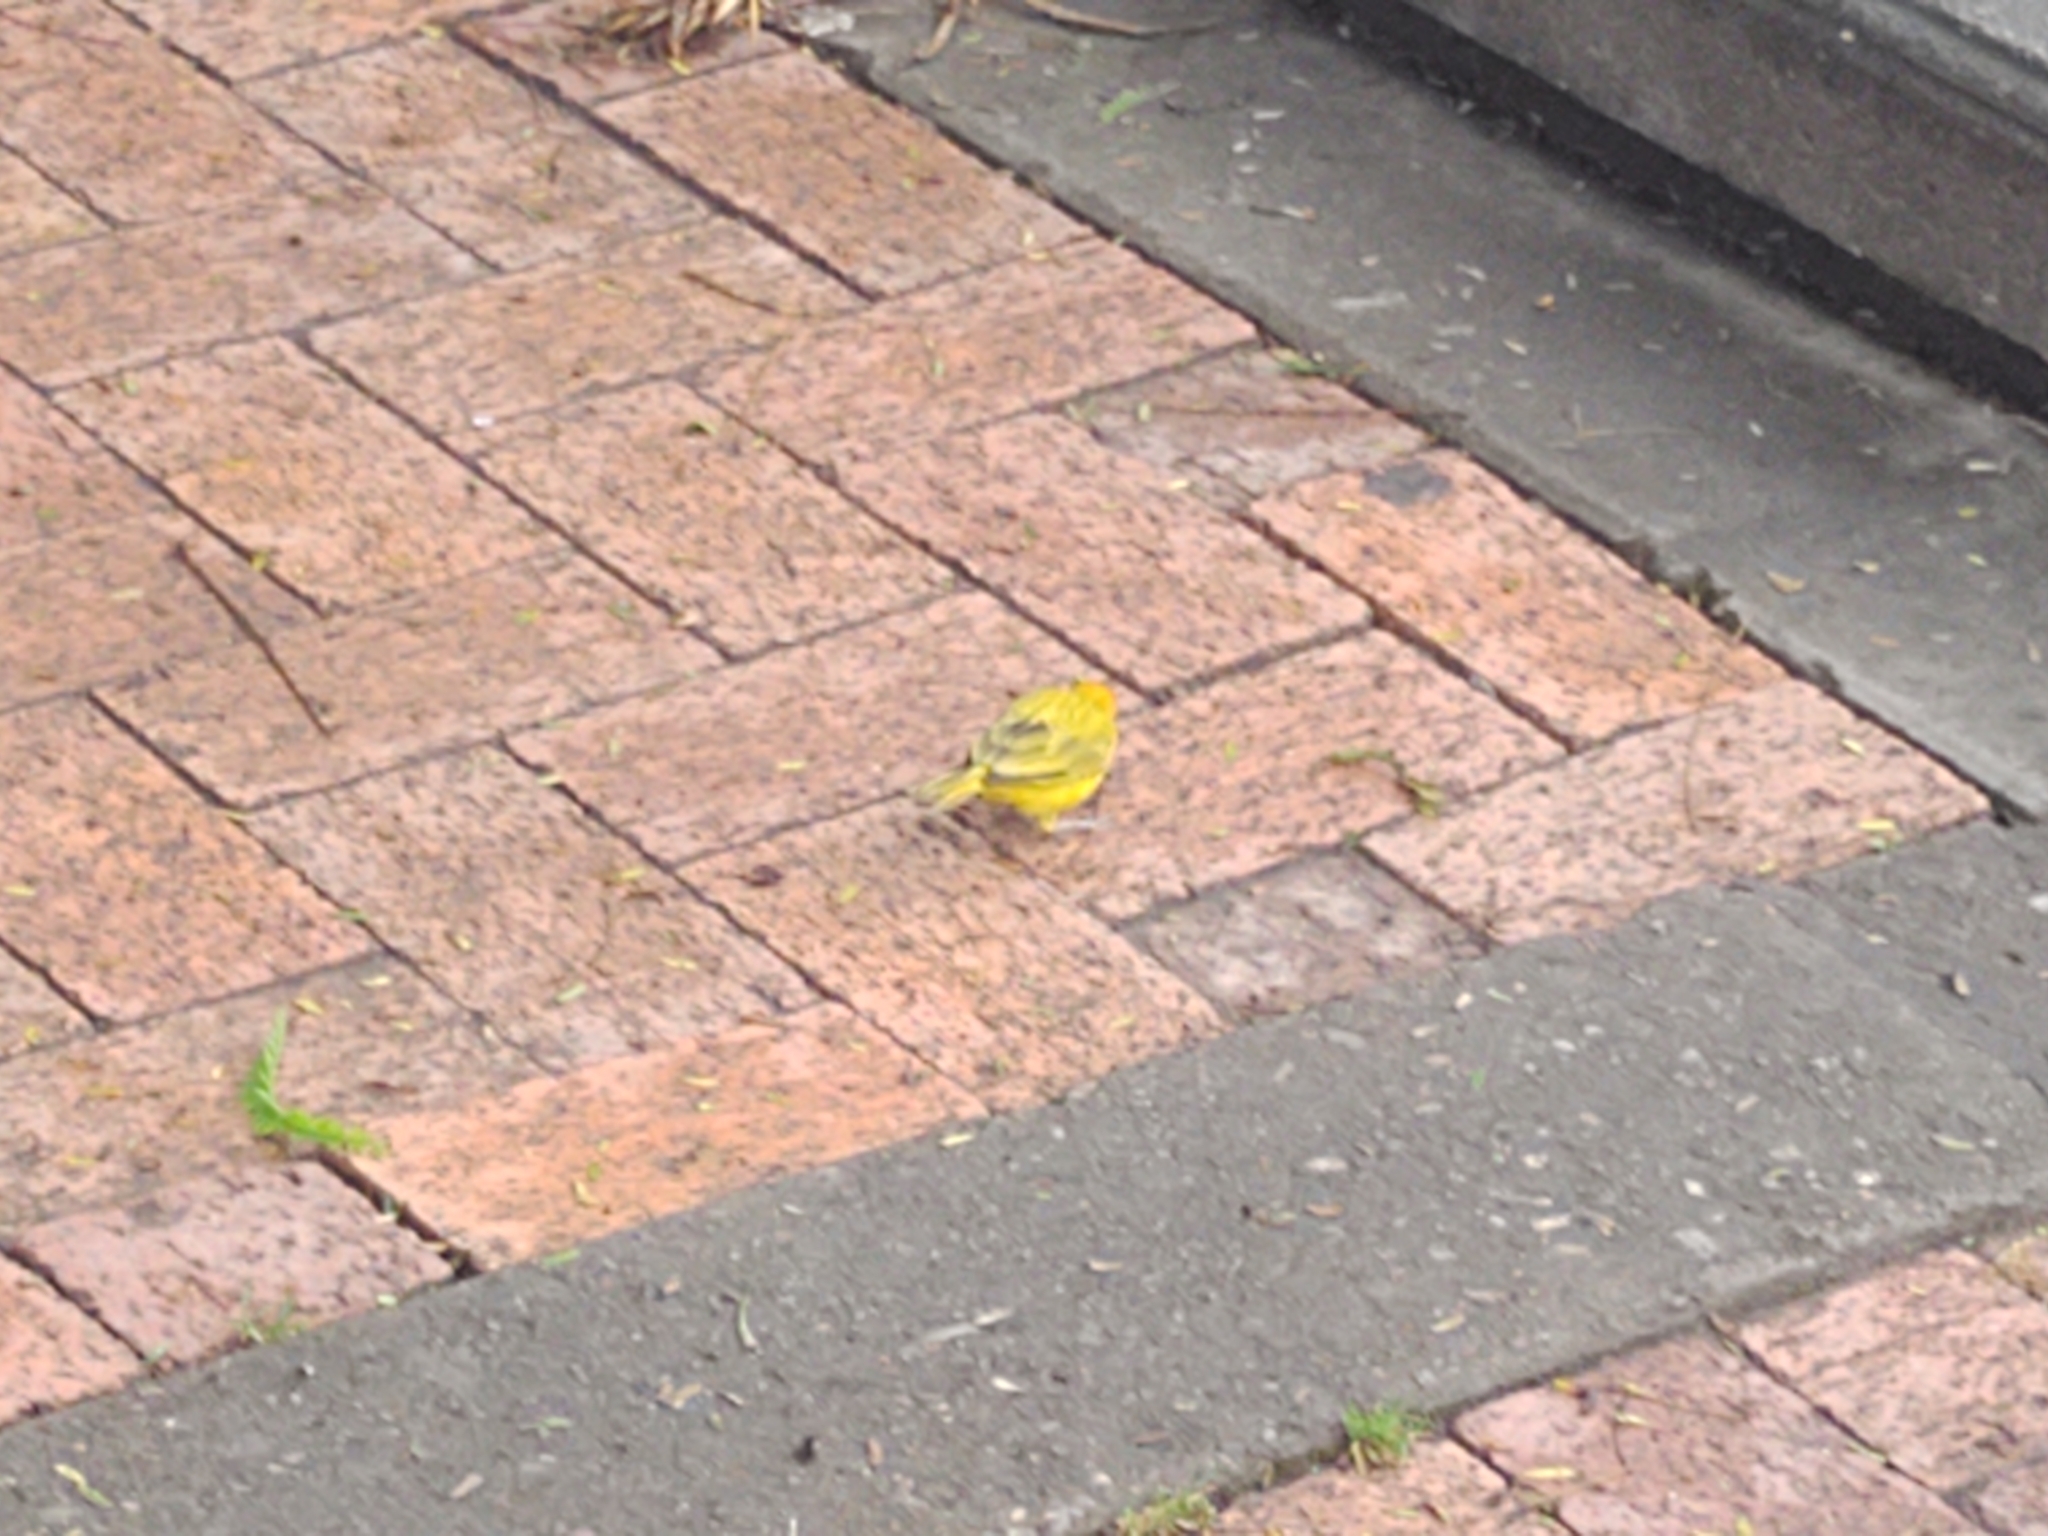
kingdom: Animalia
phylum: Chordata
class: Aves
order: Passeriformes
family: Thraupidae
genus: Sicalis
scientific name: Sicalis flaveola
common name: Saffron finch
